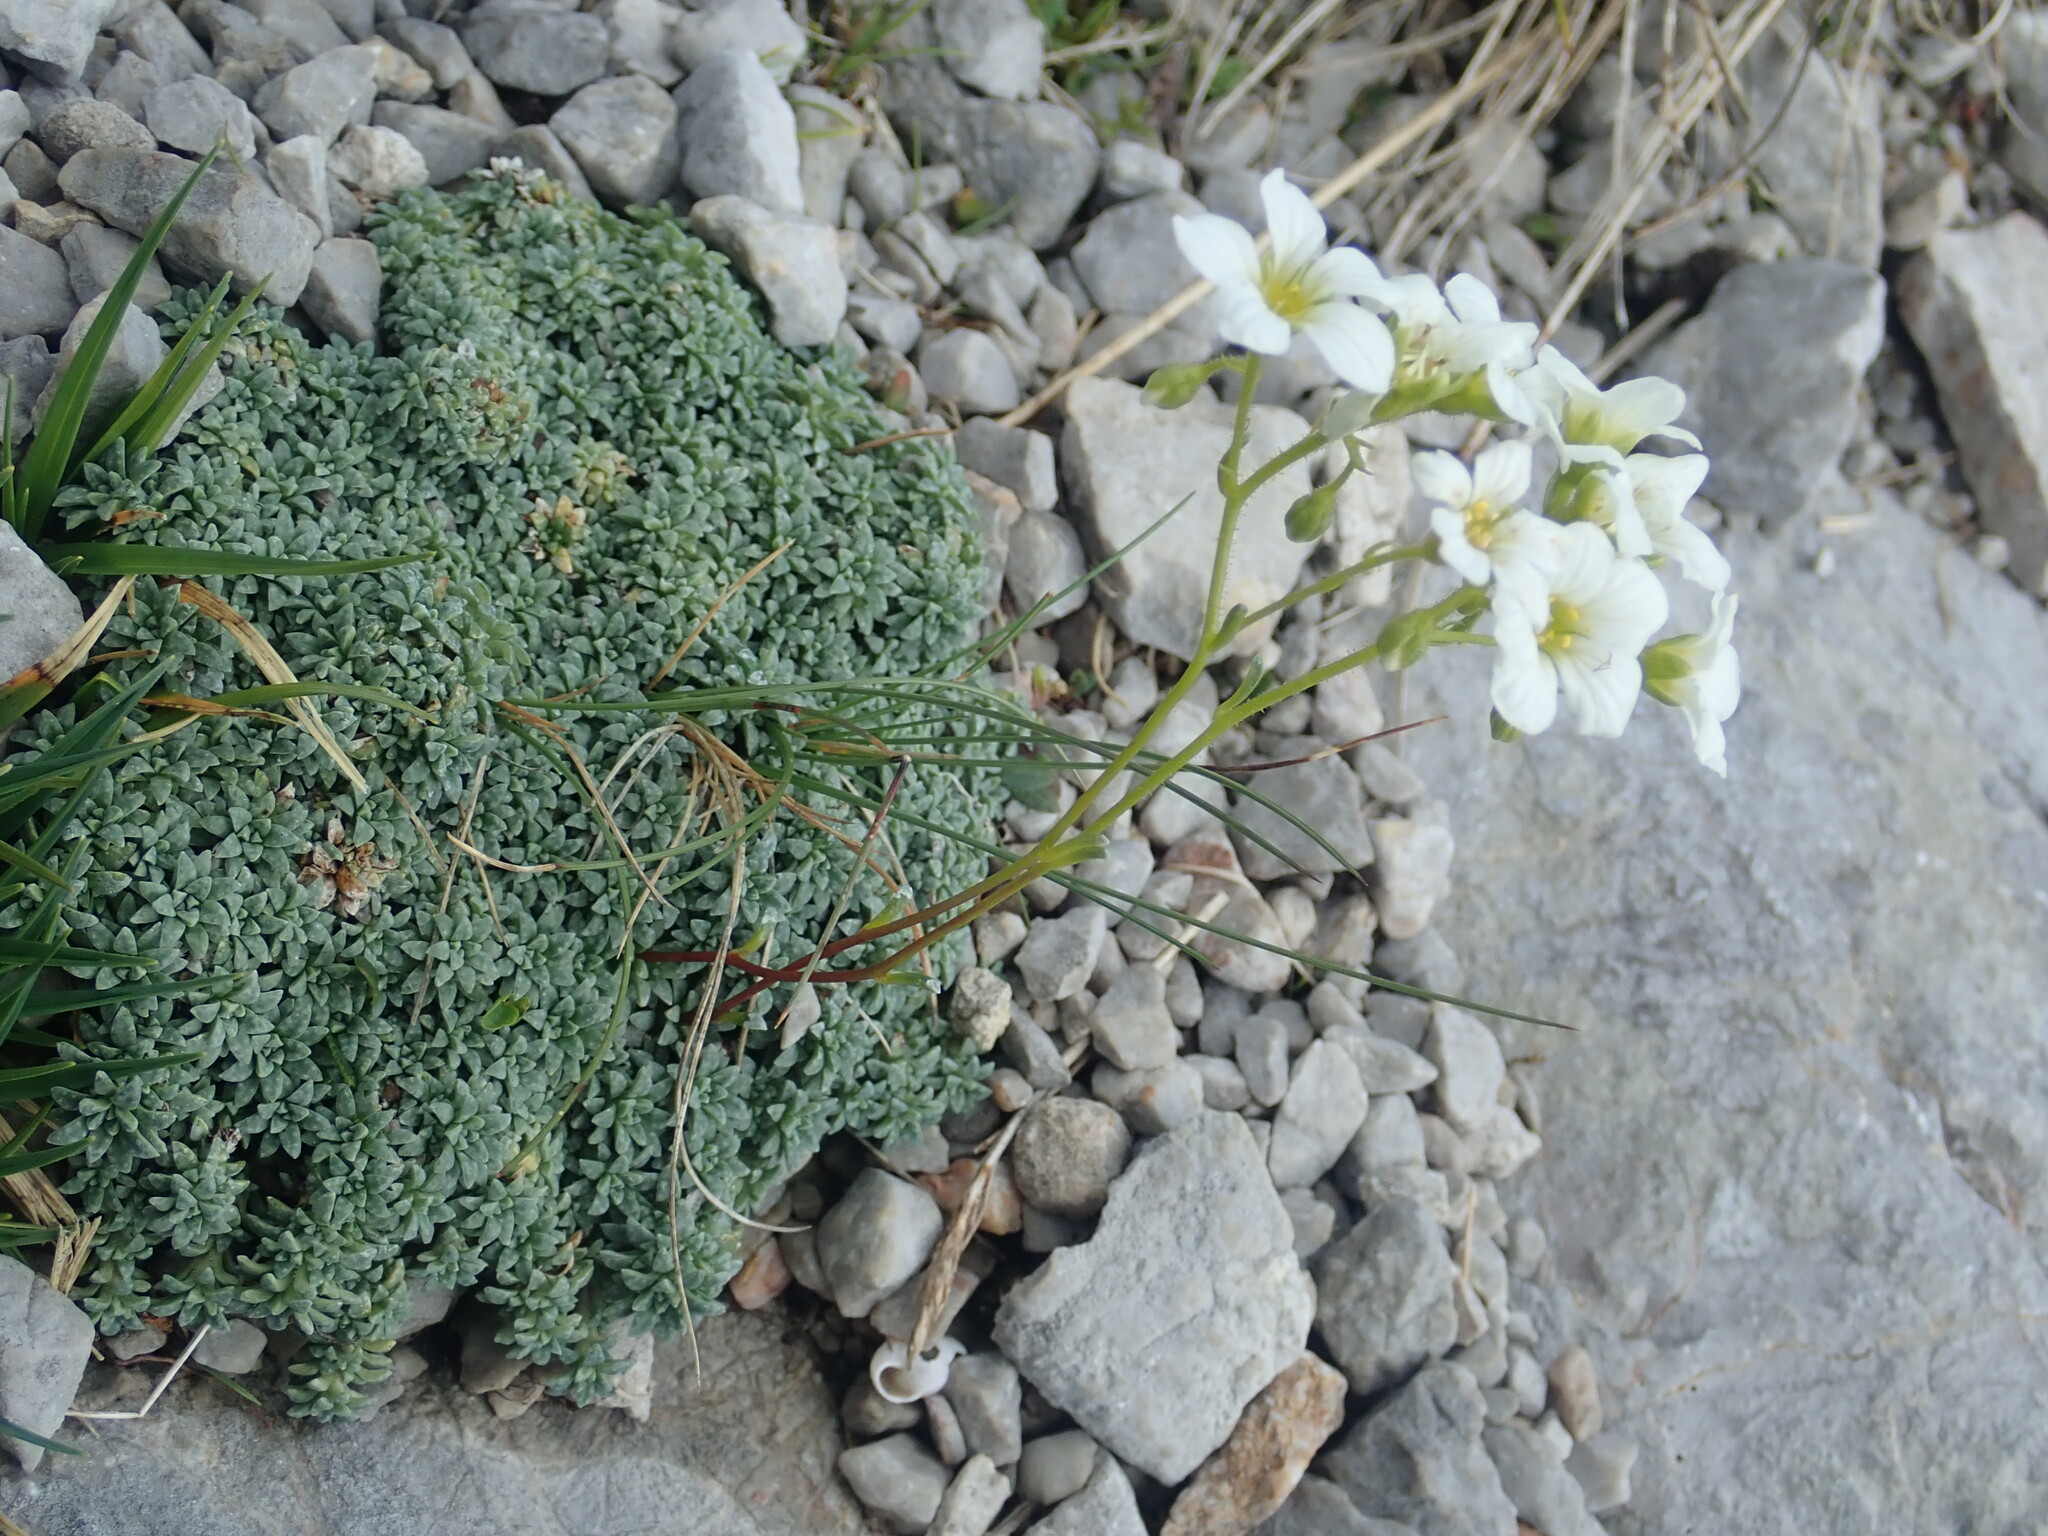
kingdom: Plantae
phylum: Tracheophyta
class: Magnoliopsida
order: Saxifragales
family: Saxifragaceae
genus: Saxifraga
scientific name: Saxifraga caesia
